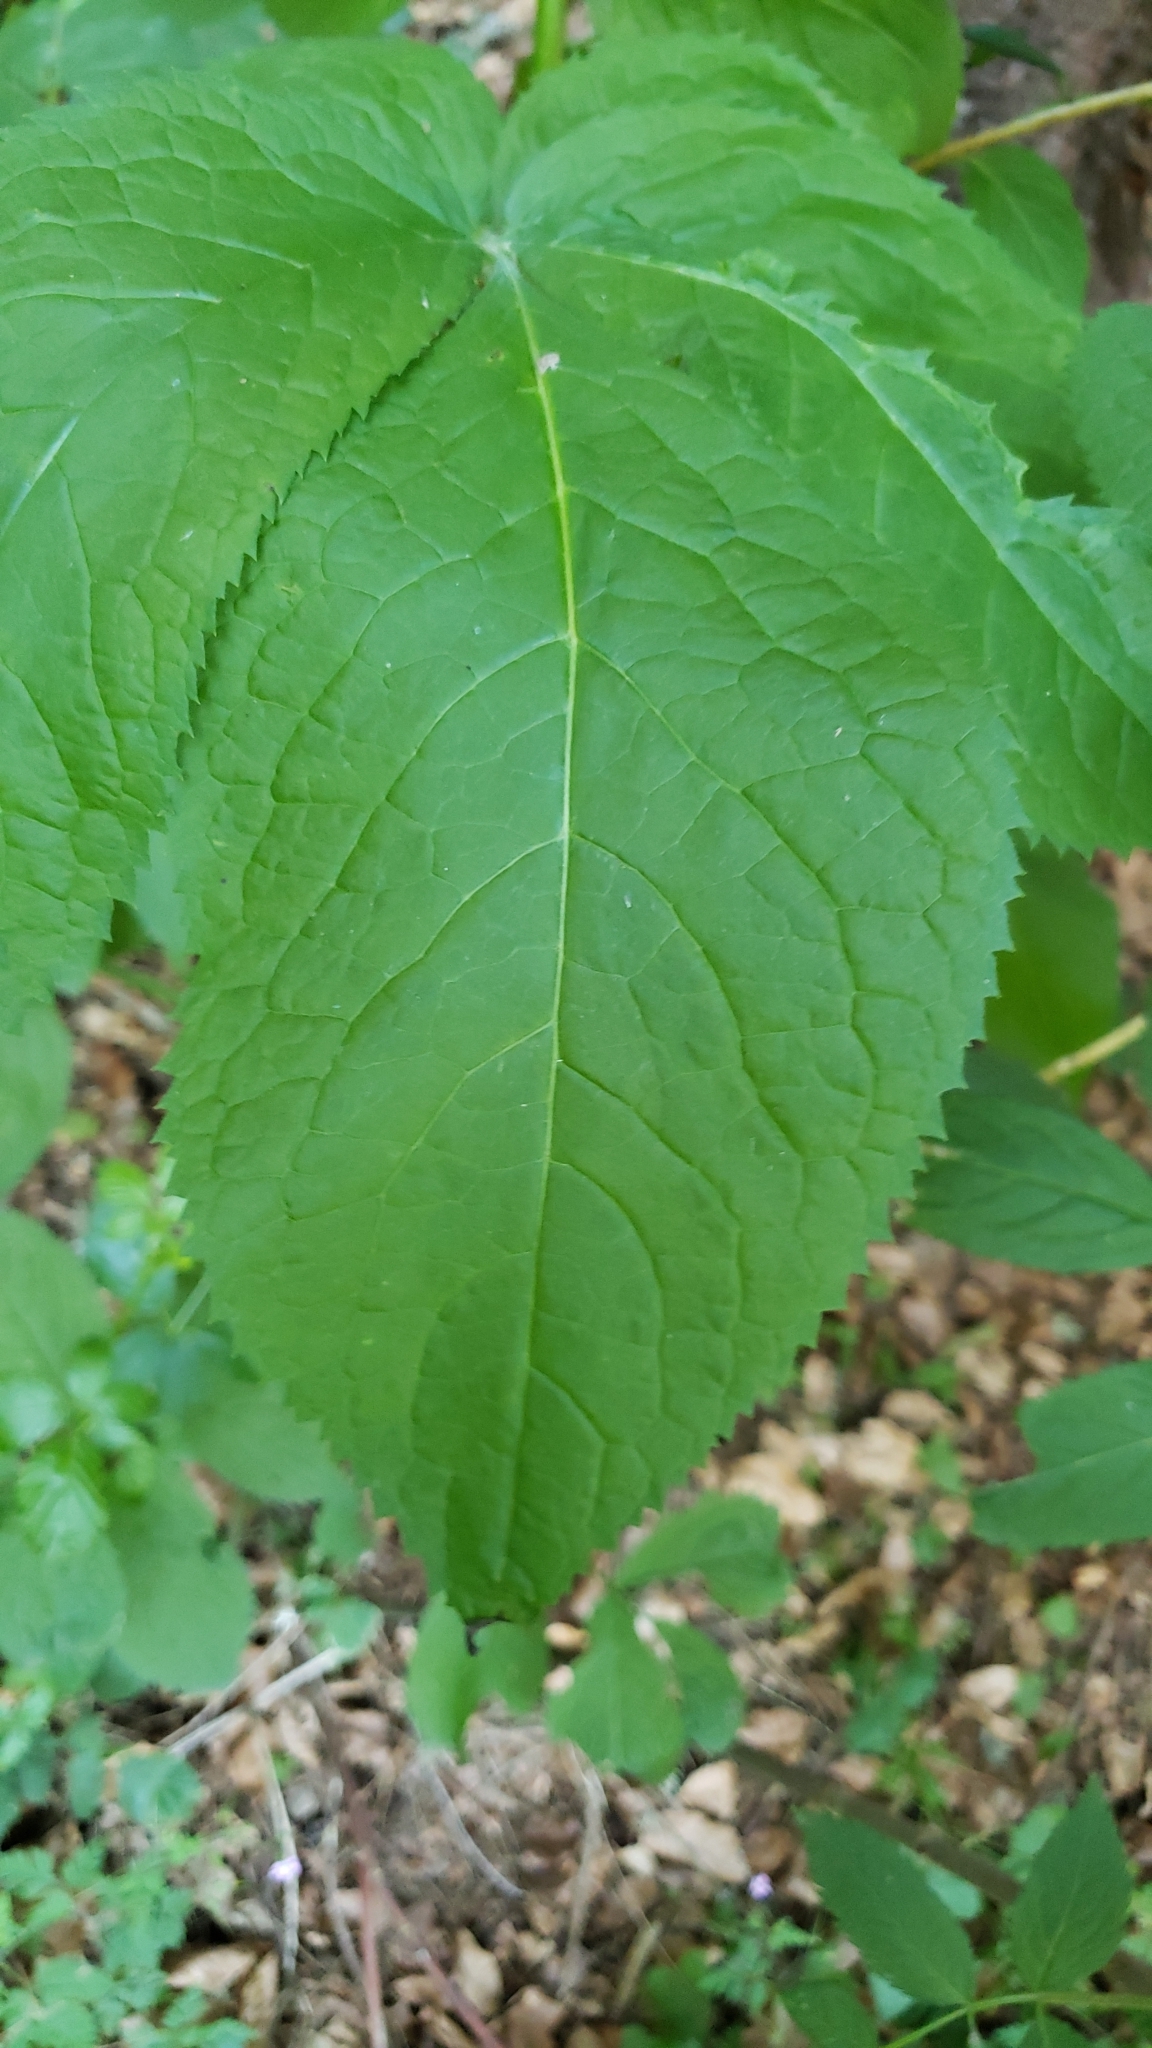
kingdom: Plantae
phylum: Tracheophyta
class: Magnoliopsida
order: Dipsacales
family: Viburnaceae
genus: Sambucus
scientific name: Sambucus racemosa
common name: Red-berried elder
